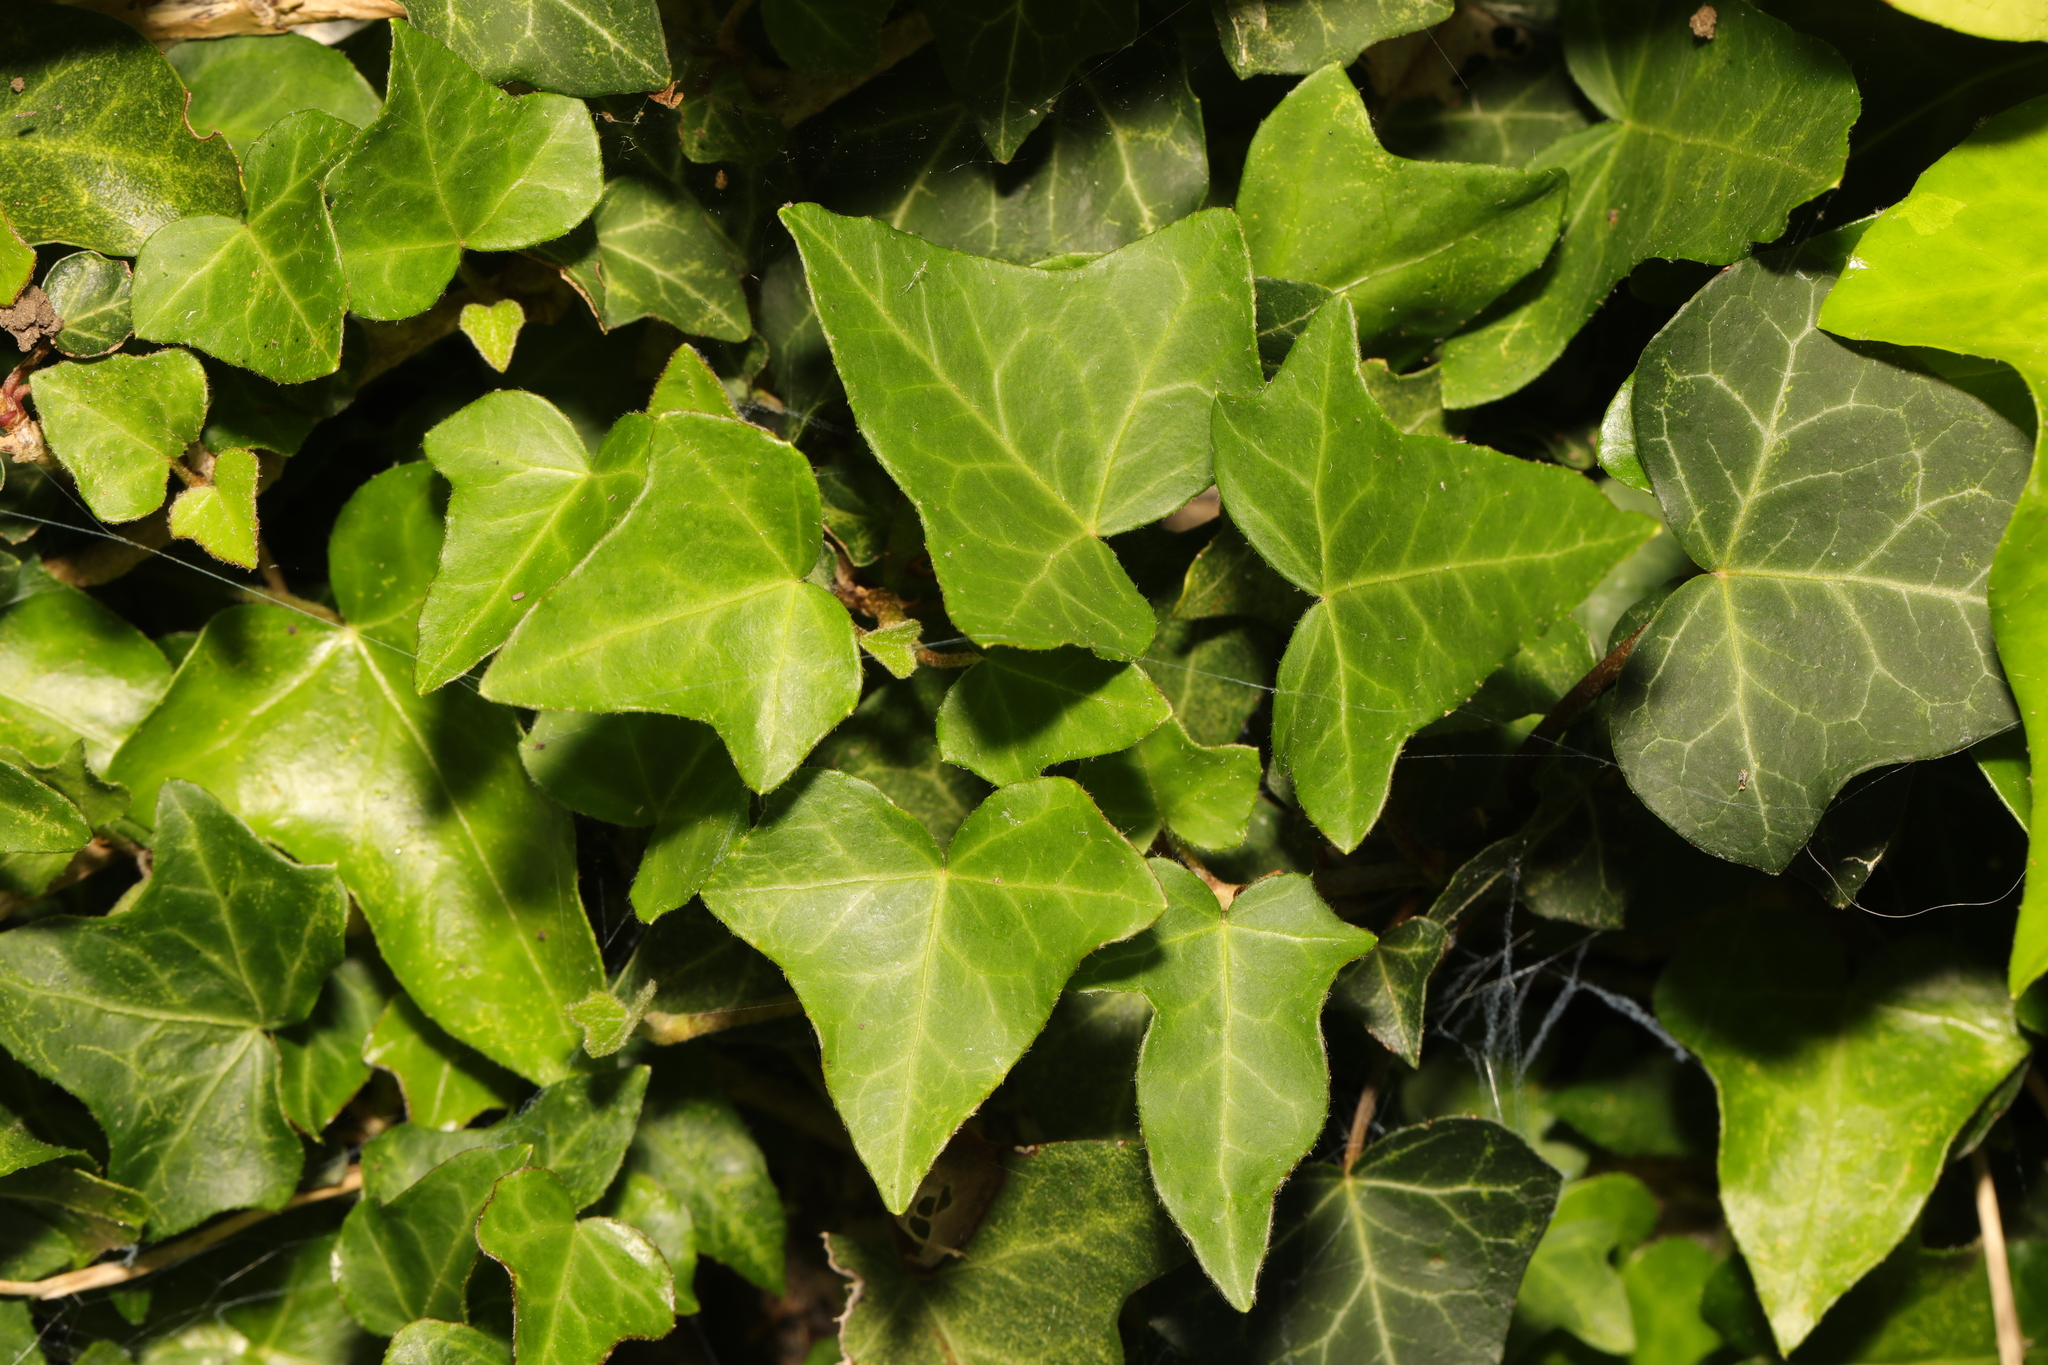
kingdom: Plantae
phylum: Tracheophyta
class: Magnoliopsida
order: Apiales
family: Araliaceae
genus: Hedera
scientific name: Hedera helix
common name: Ivy
